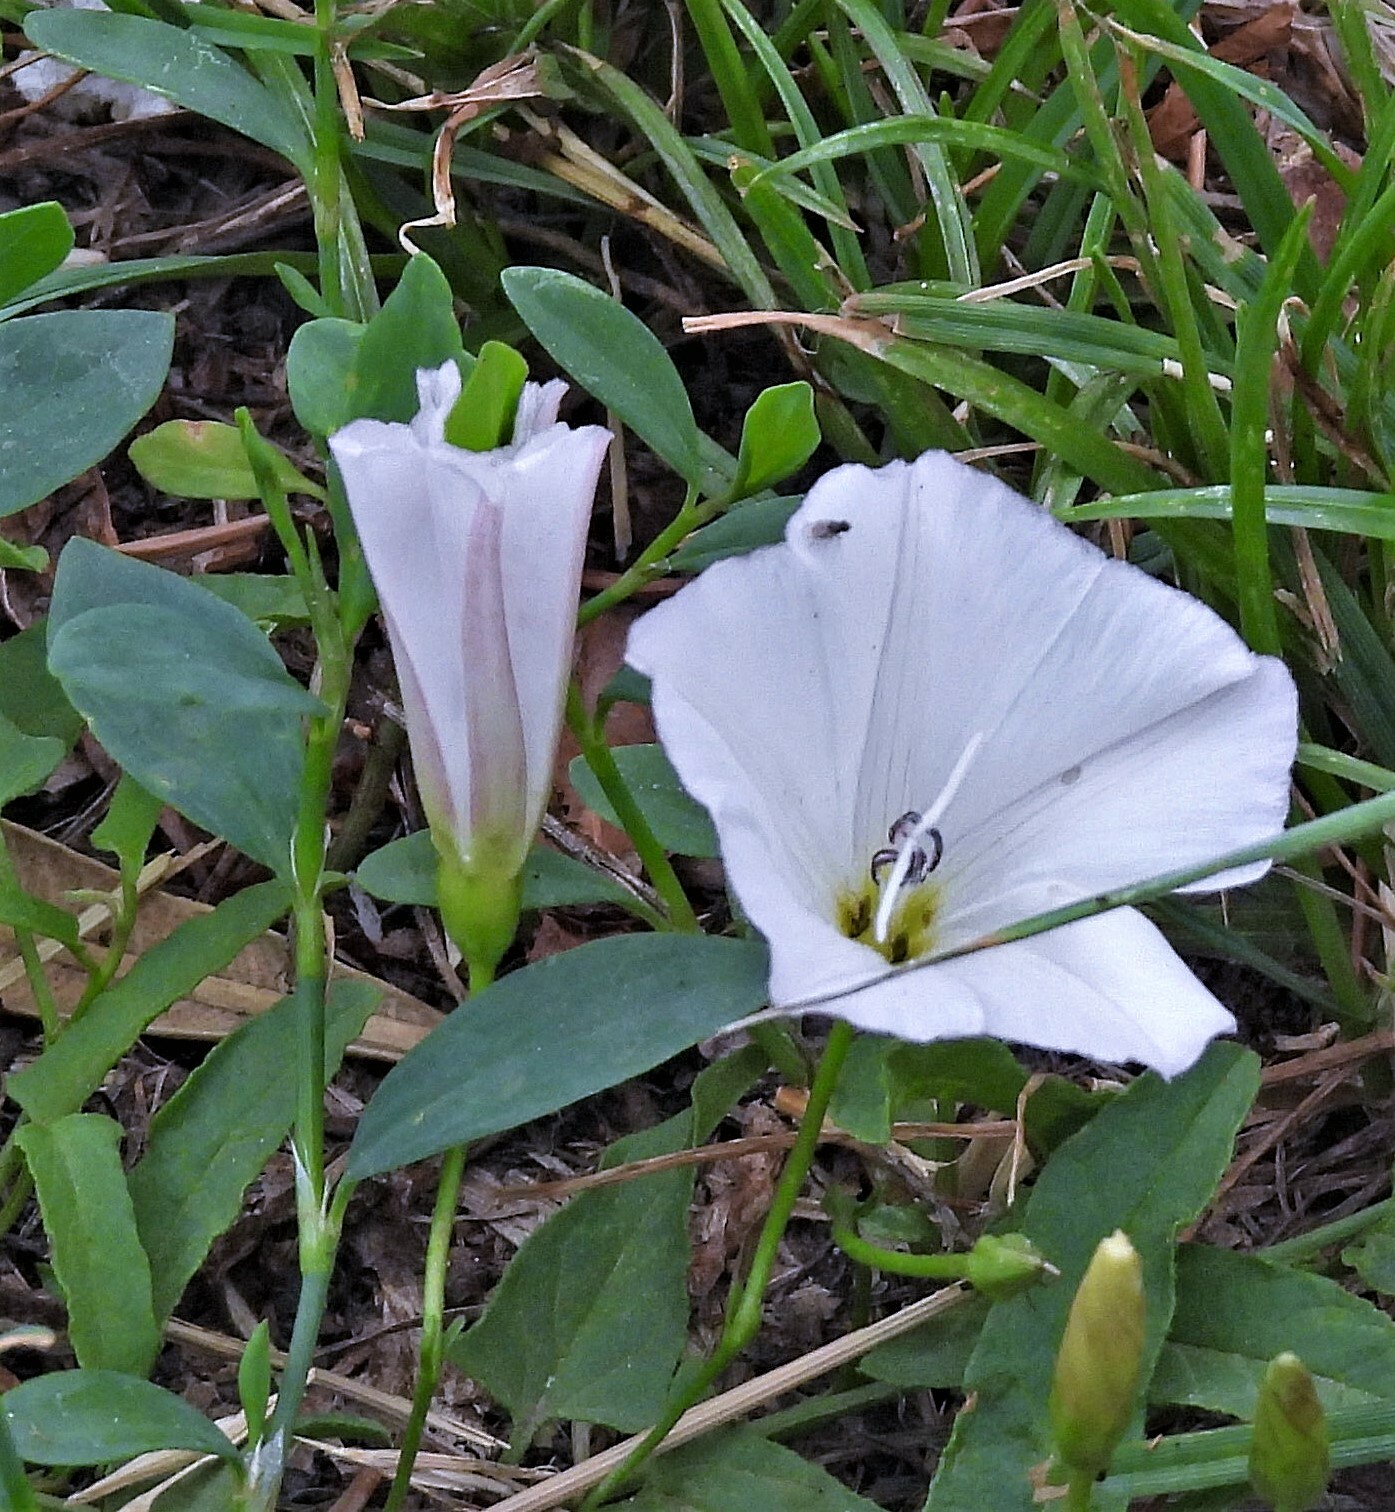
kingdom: Plantae
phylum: Tracheophyta
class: Magnoliopsida
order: Solanales
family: Convolvulaceae
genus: Convolvulus
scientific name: Convolvulus arvensis
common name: Field bindweed
